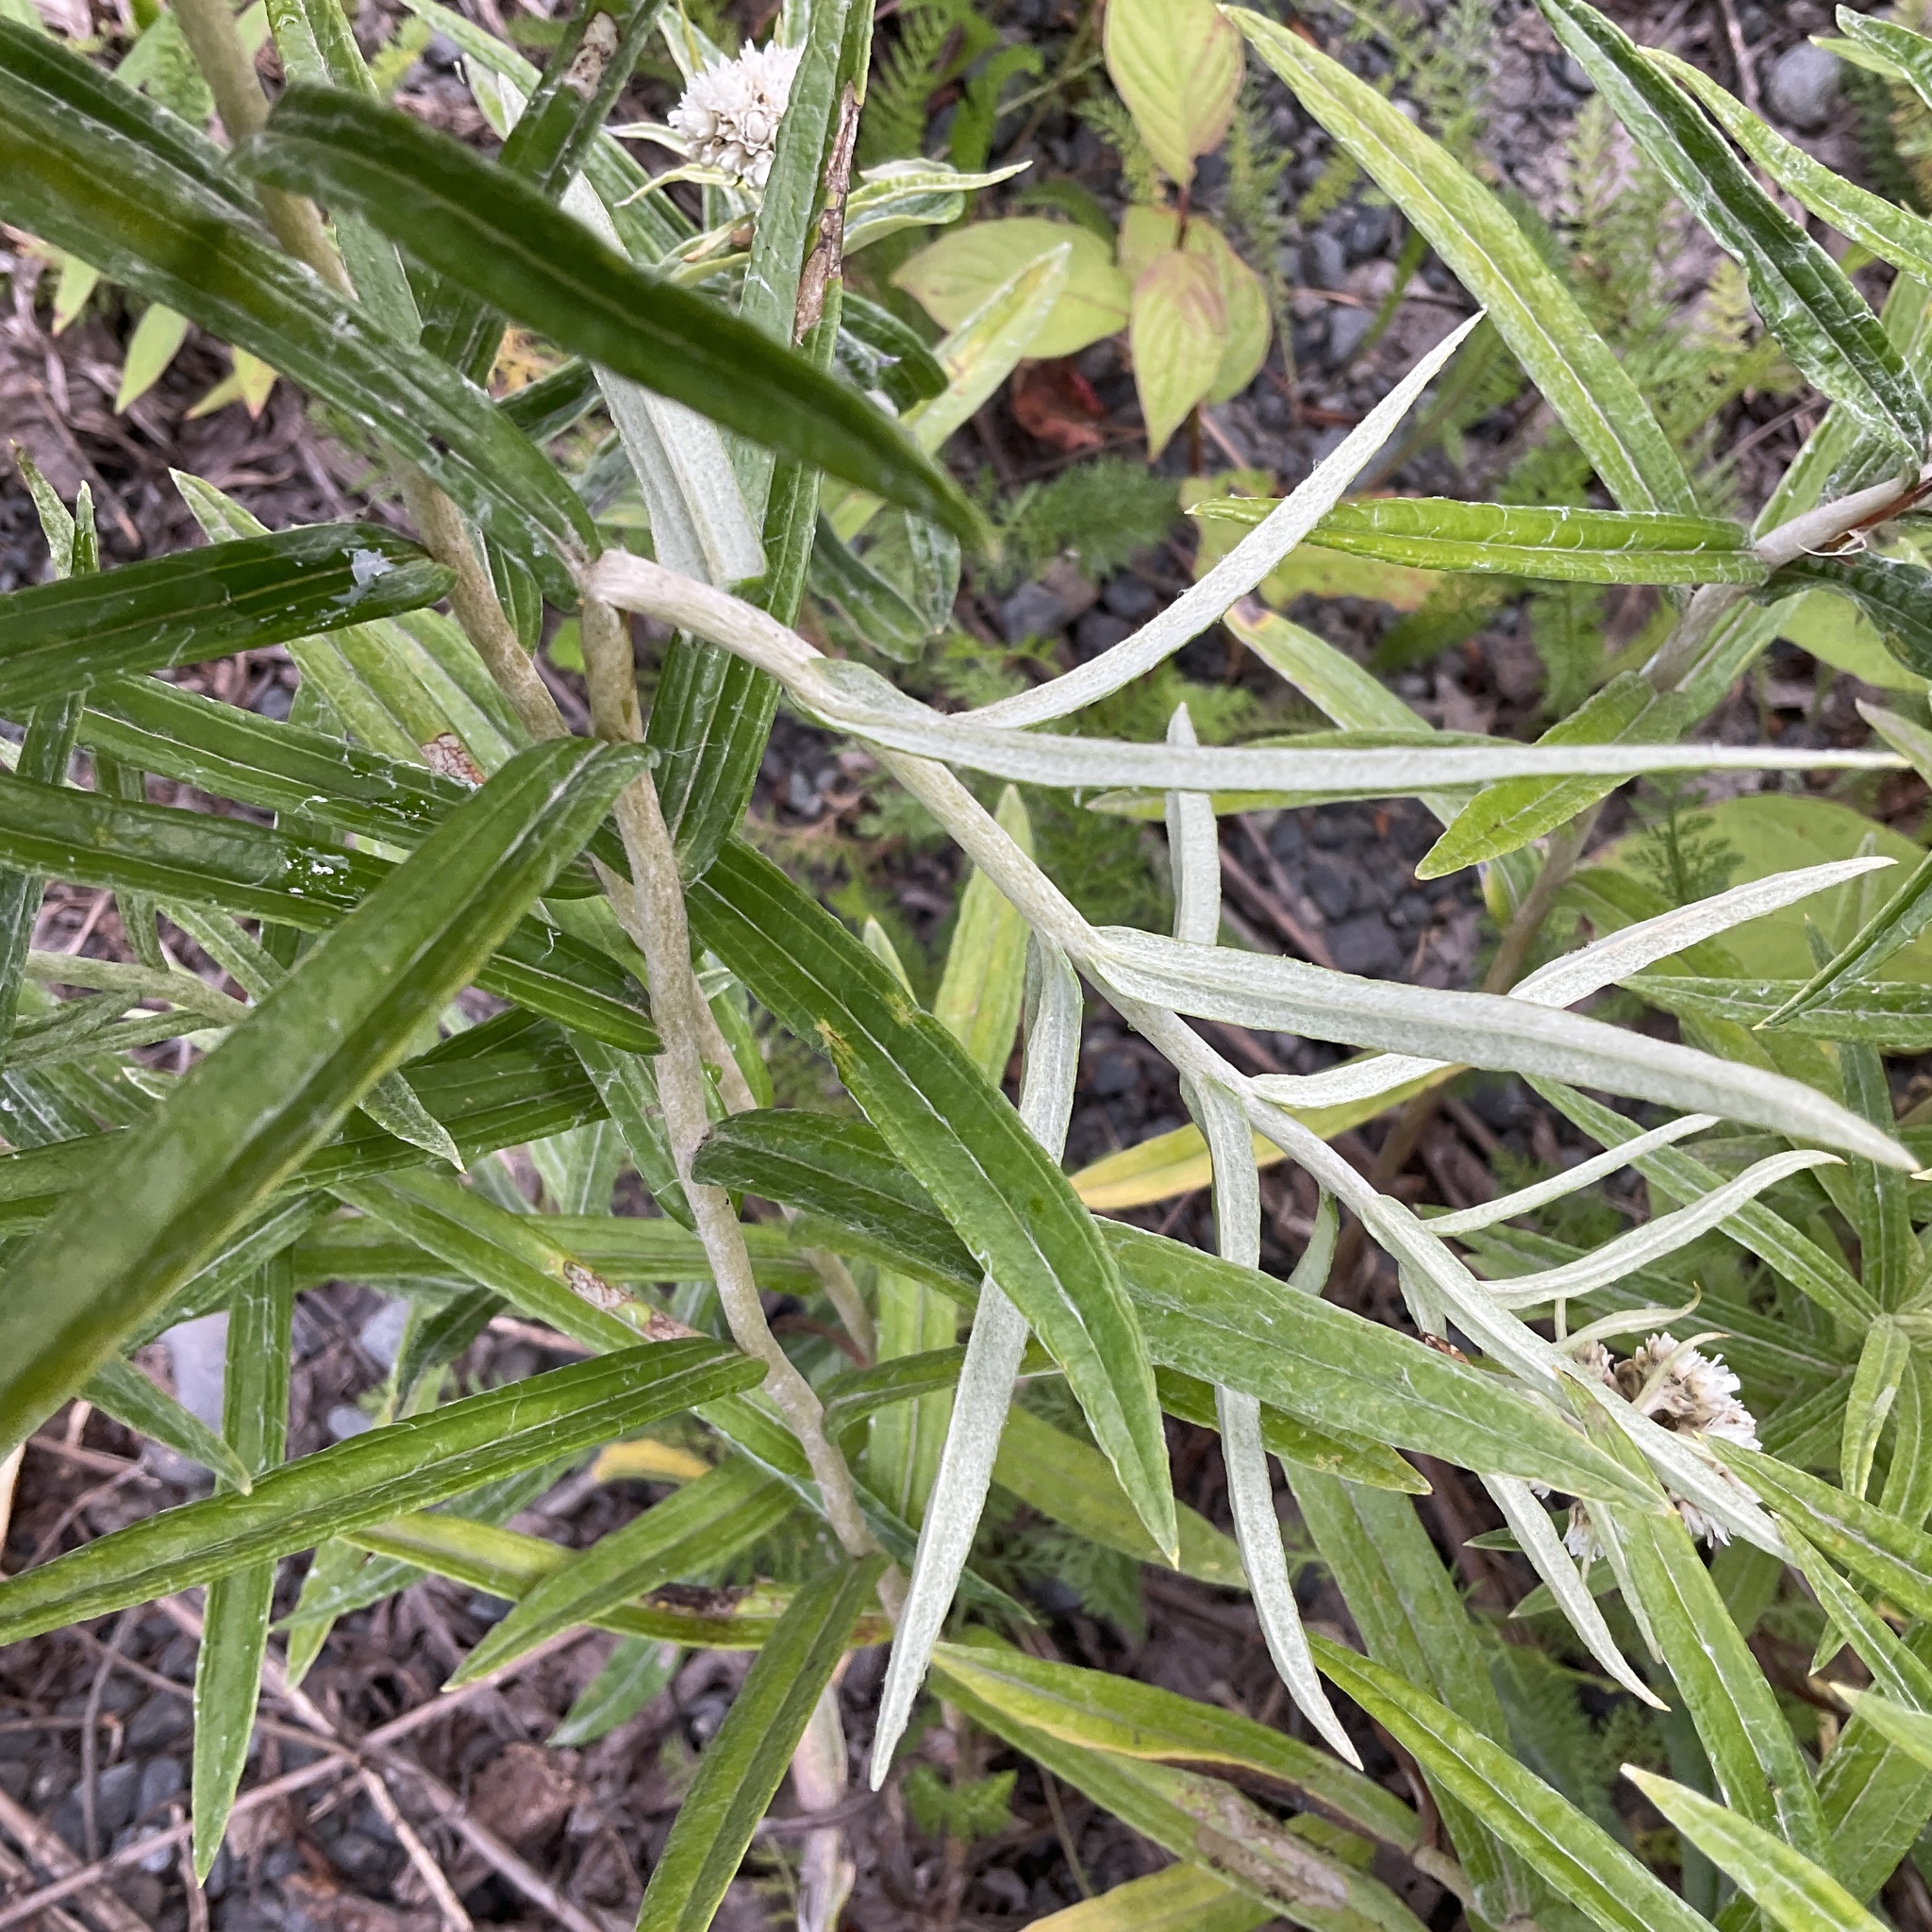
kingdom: Plantae
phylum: Tracheophyta
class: Magnoliopsida
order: Asterales
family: Asteraceae
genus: Anaphalis
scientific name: Anaphalis margaritacea
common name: Pearly everlasting
